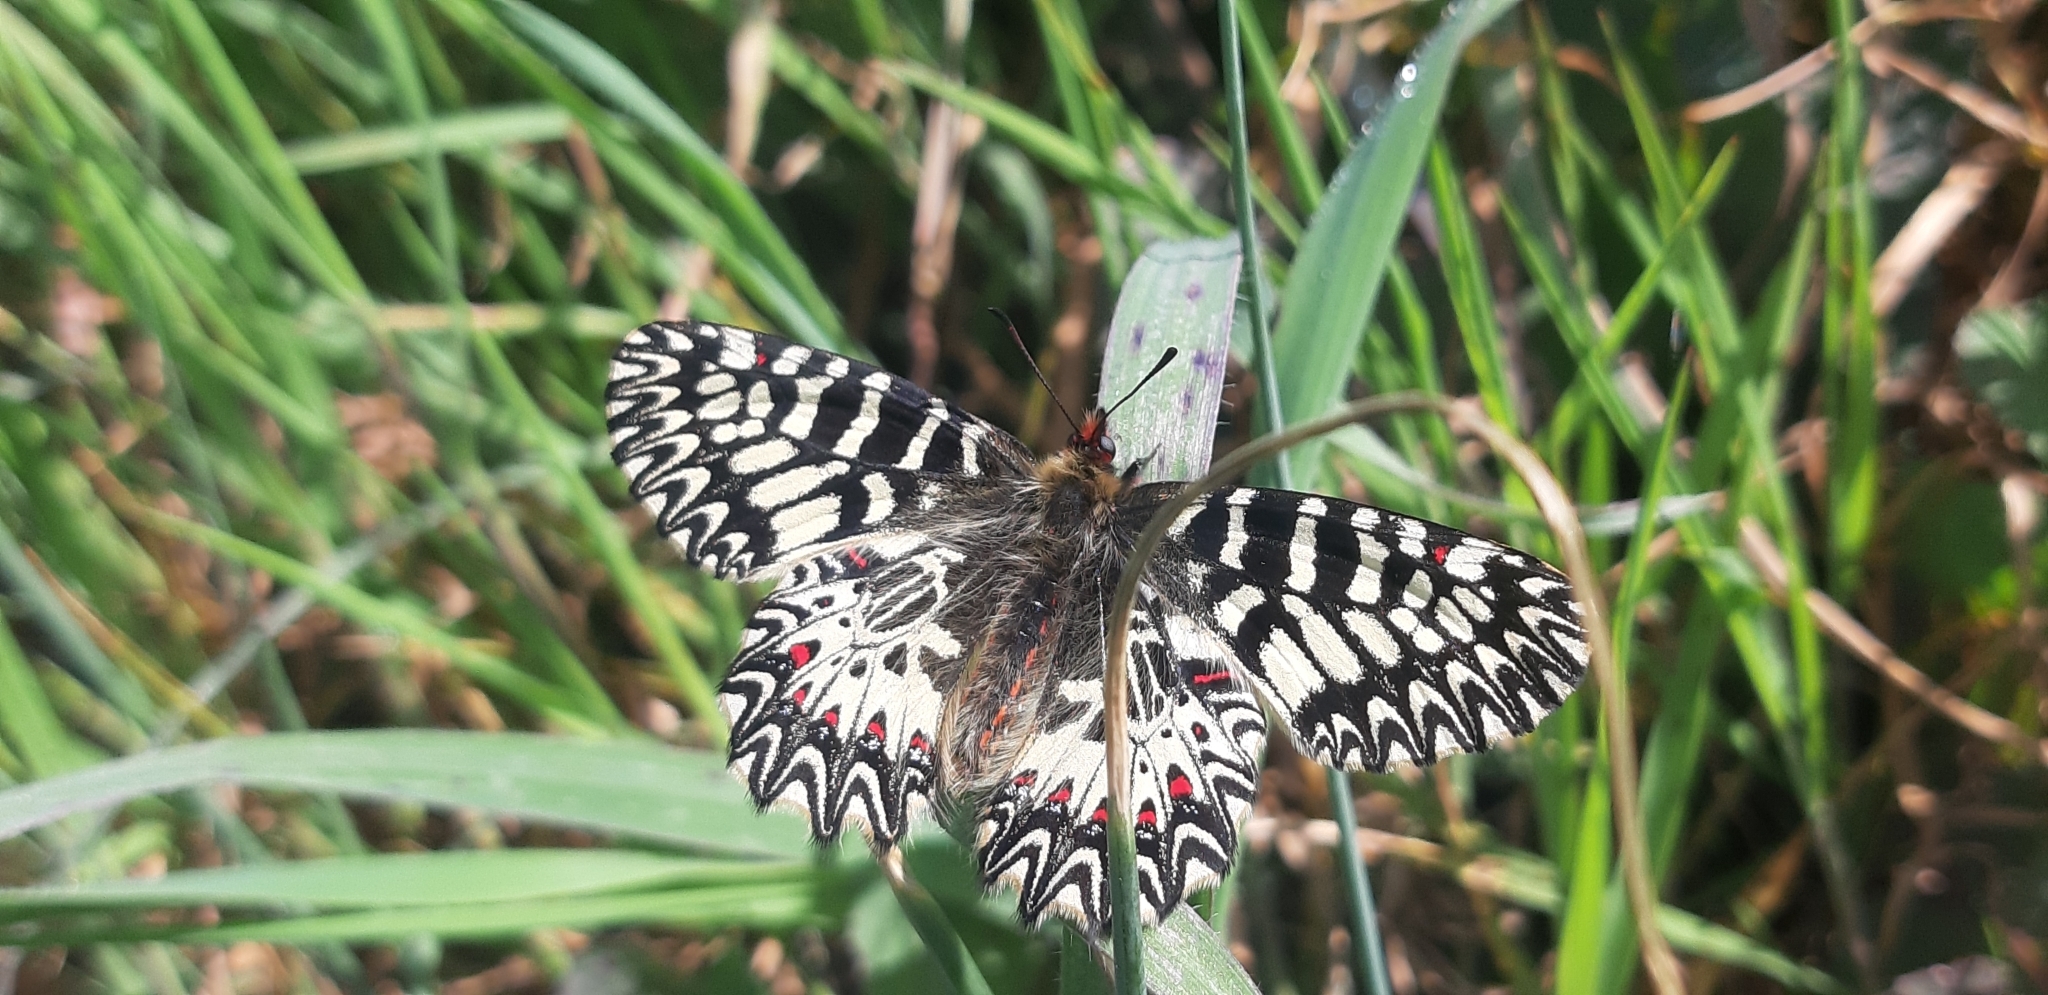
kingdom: Animalia
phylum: Arthropoda
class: Insecta
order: Lepidoptera
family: Papilionidae
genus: Zerynthia
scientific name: Zerynthia polyxena
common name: Southern festoon
